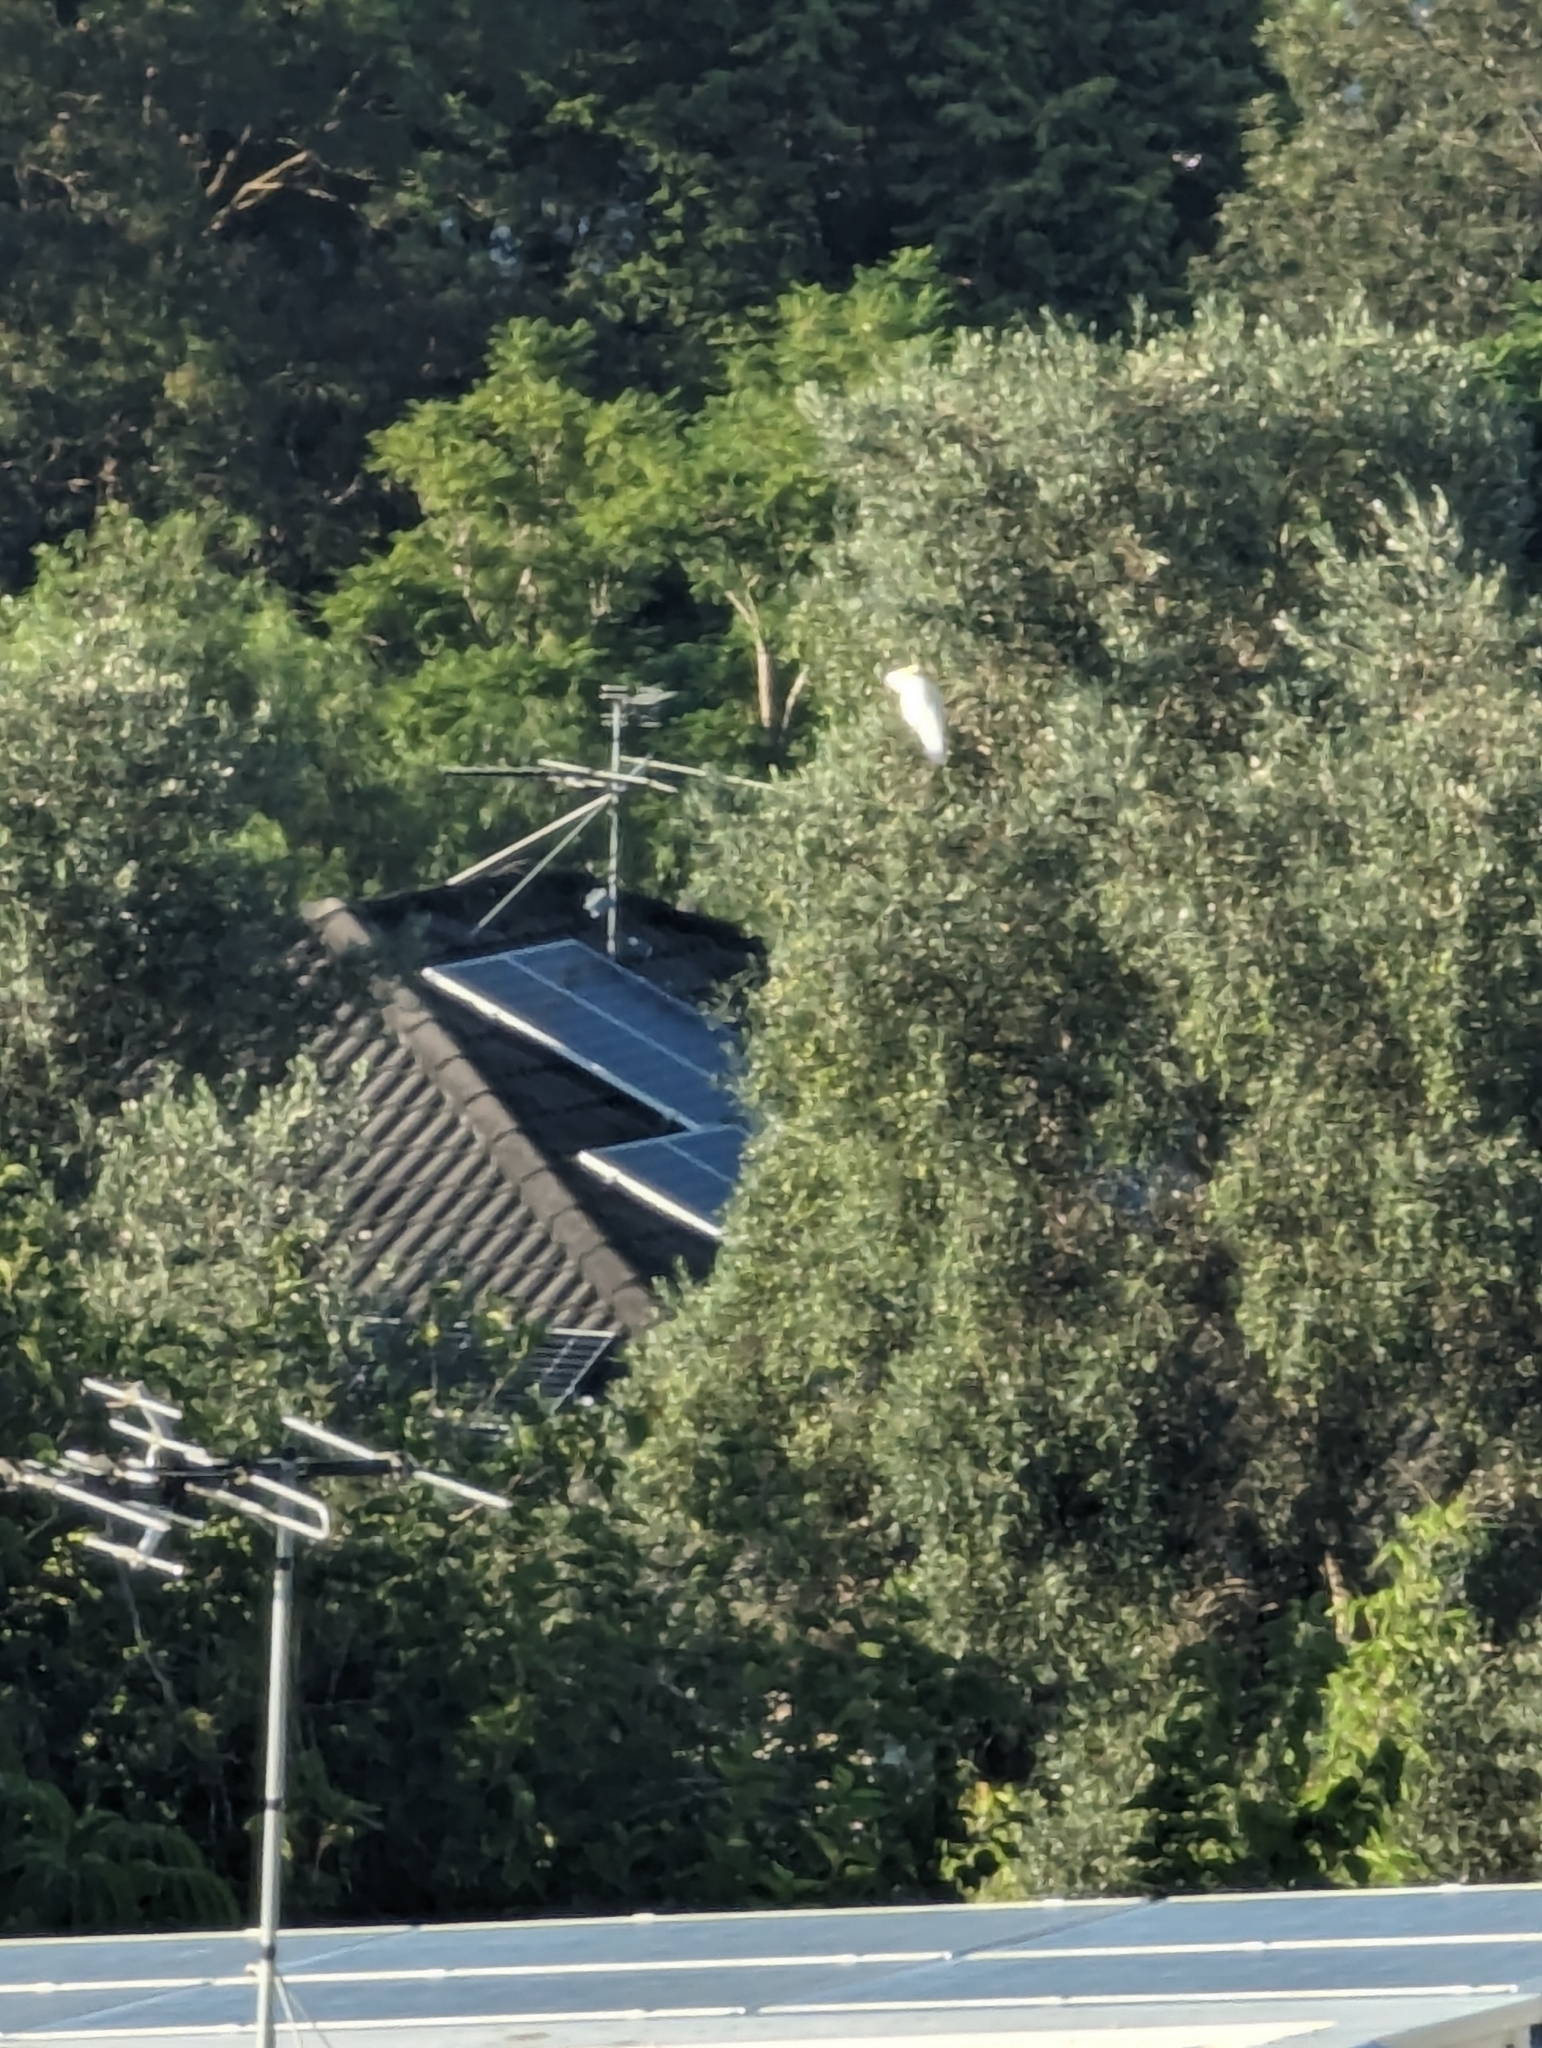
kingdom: Animalia
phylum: Chordata
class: Aves
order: Psittaciformes
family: Psittacidae
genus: Cacatua
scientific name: Cacatua galerita
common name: Sulphur-crested cockatoo
